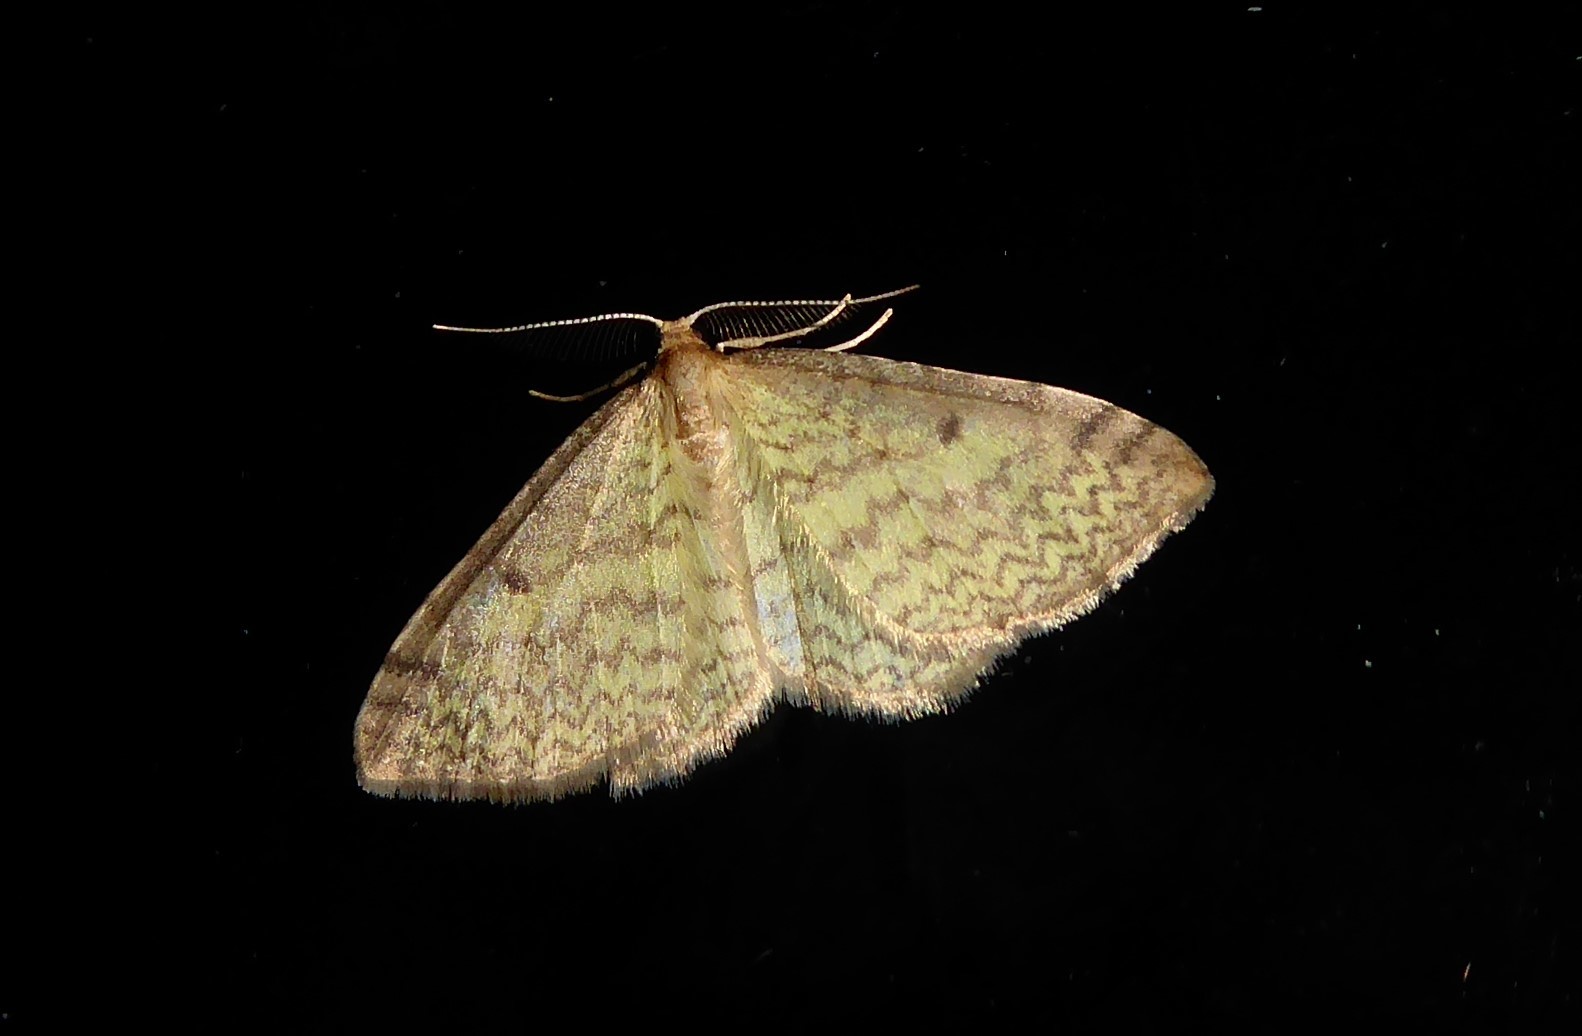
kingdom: Animalia
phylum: Arthropoda
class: Insecta
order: Lepidoptera
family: Geometridae
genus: Epiphryne
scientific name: Epiphryne undosata
